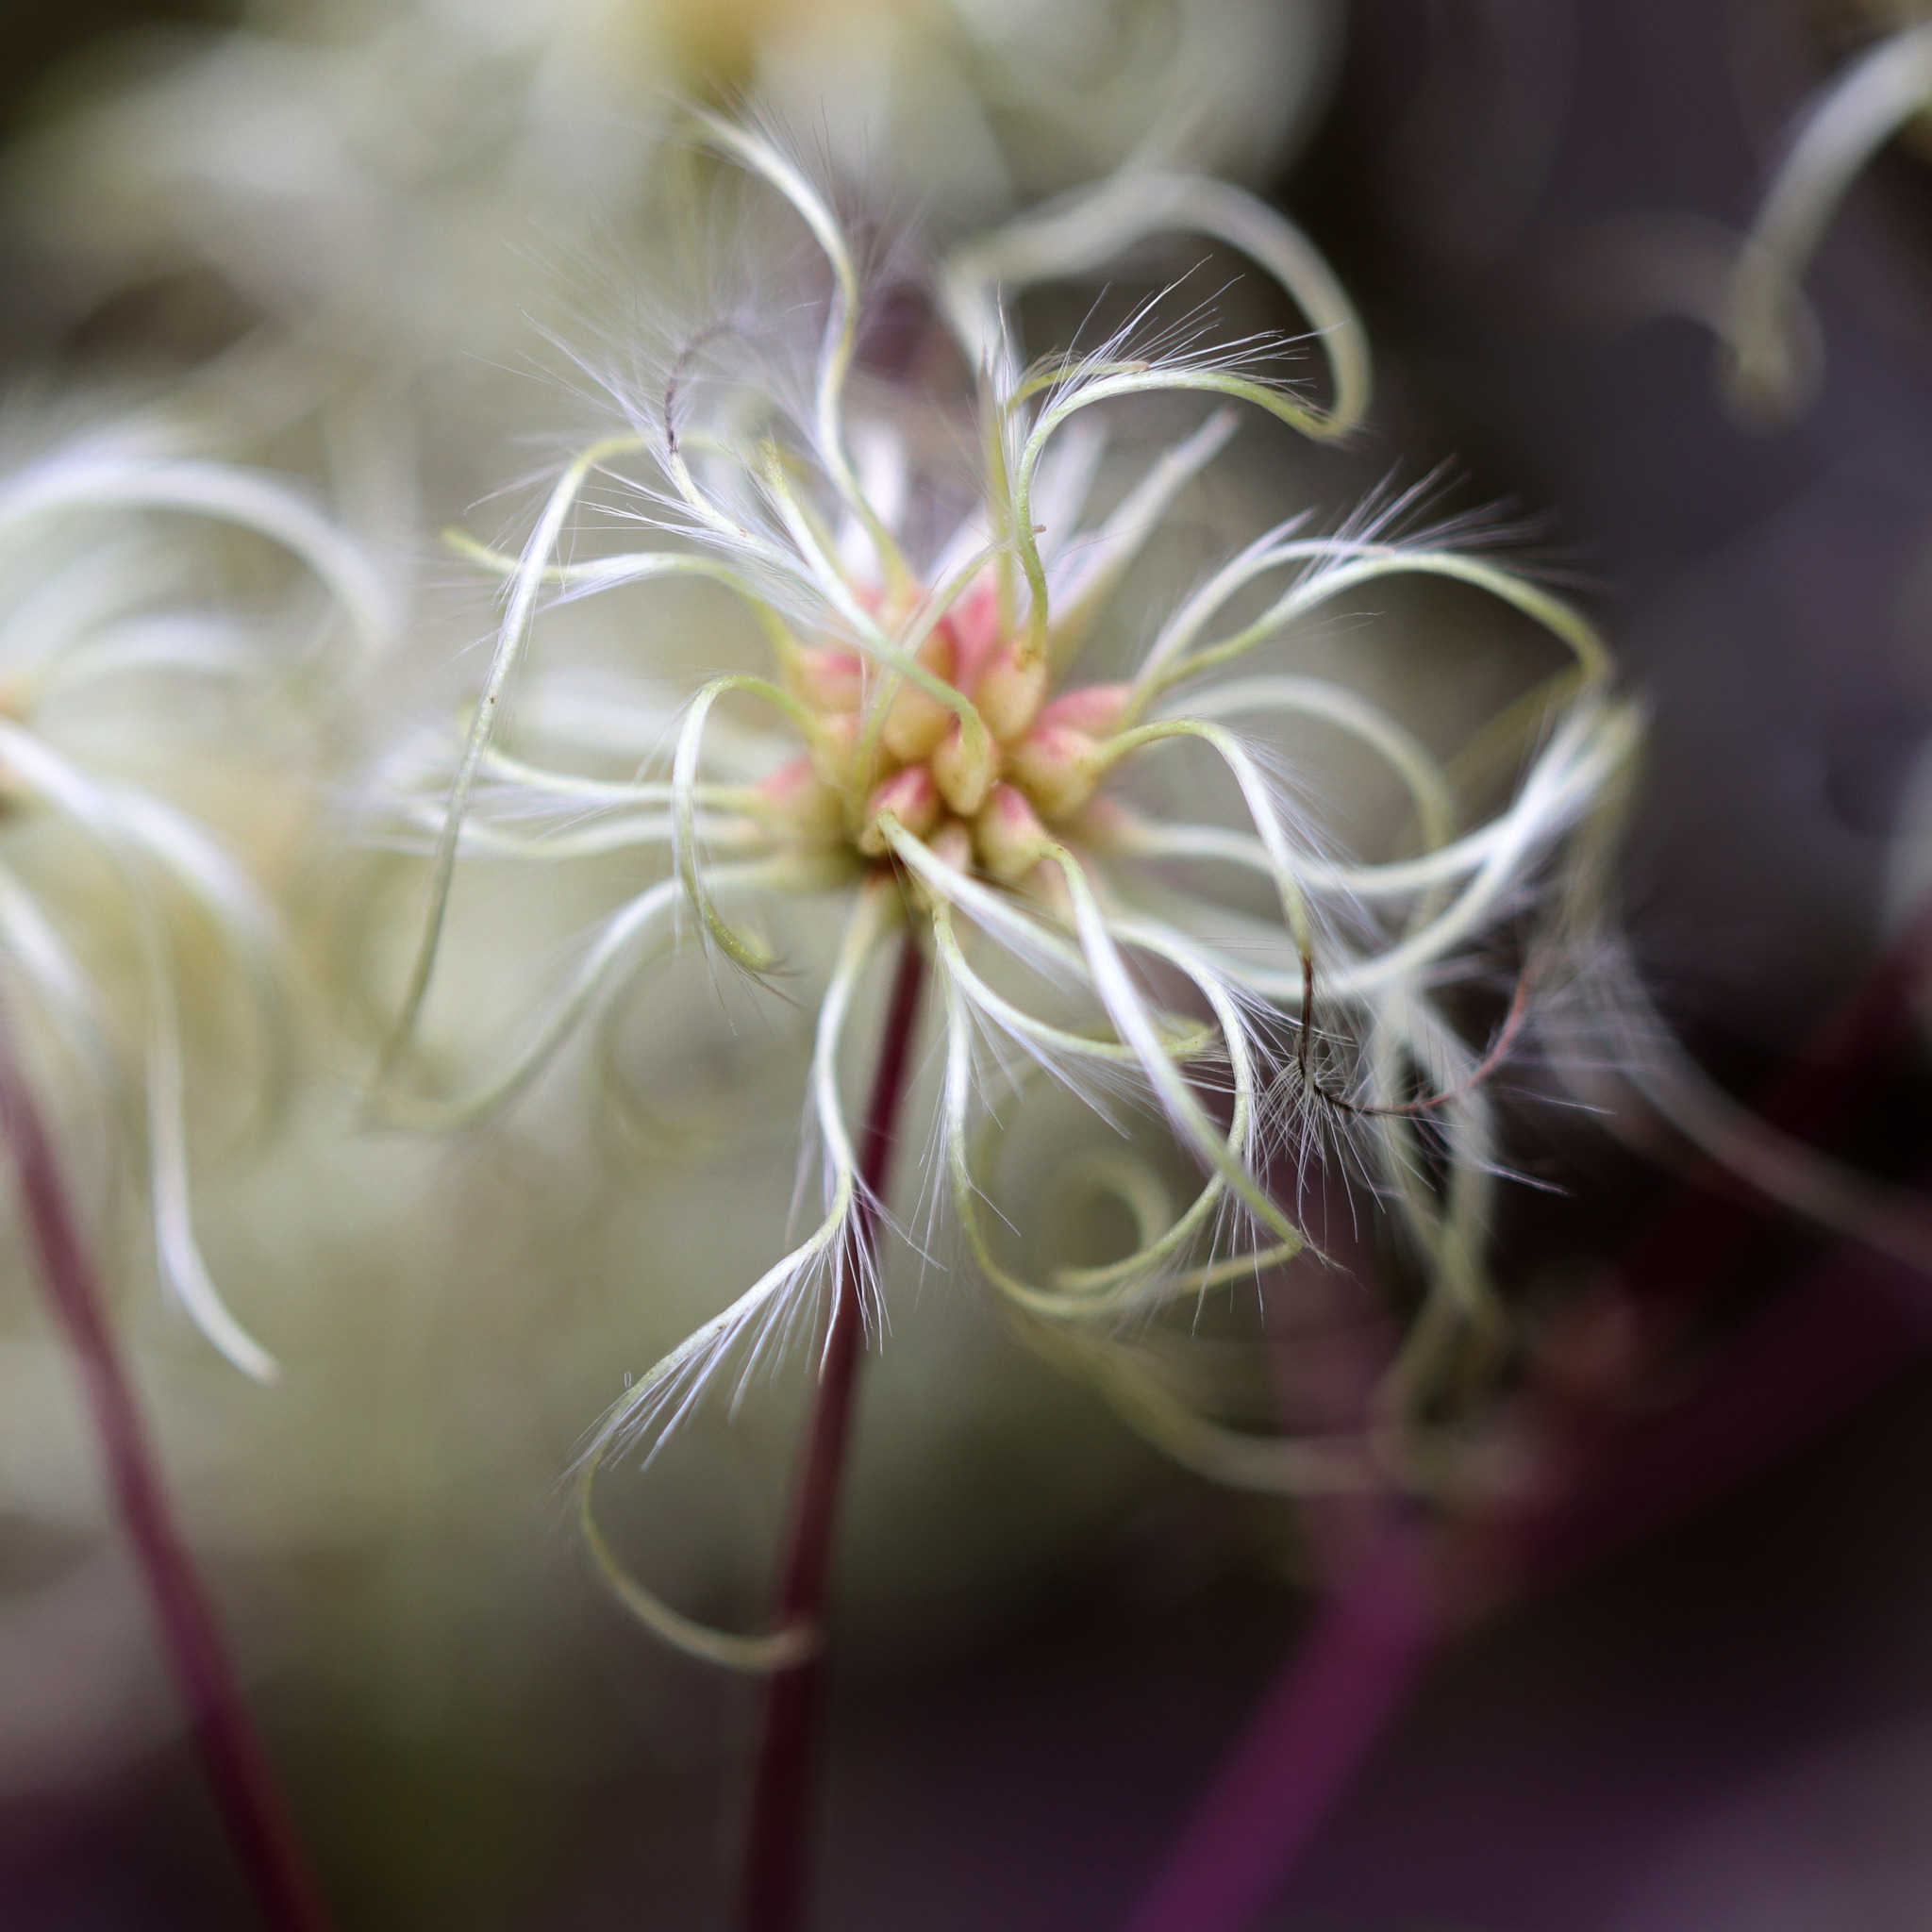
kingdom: Plantae
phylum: Tracheophyta
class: Magnoliopsida
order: Ranunculales
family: Ranunculaceae
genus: Clematis
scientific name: Clematis virginiana
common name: Virgin's-bower
